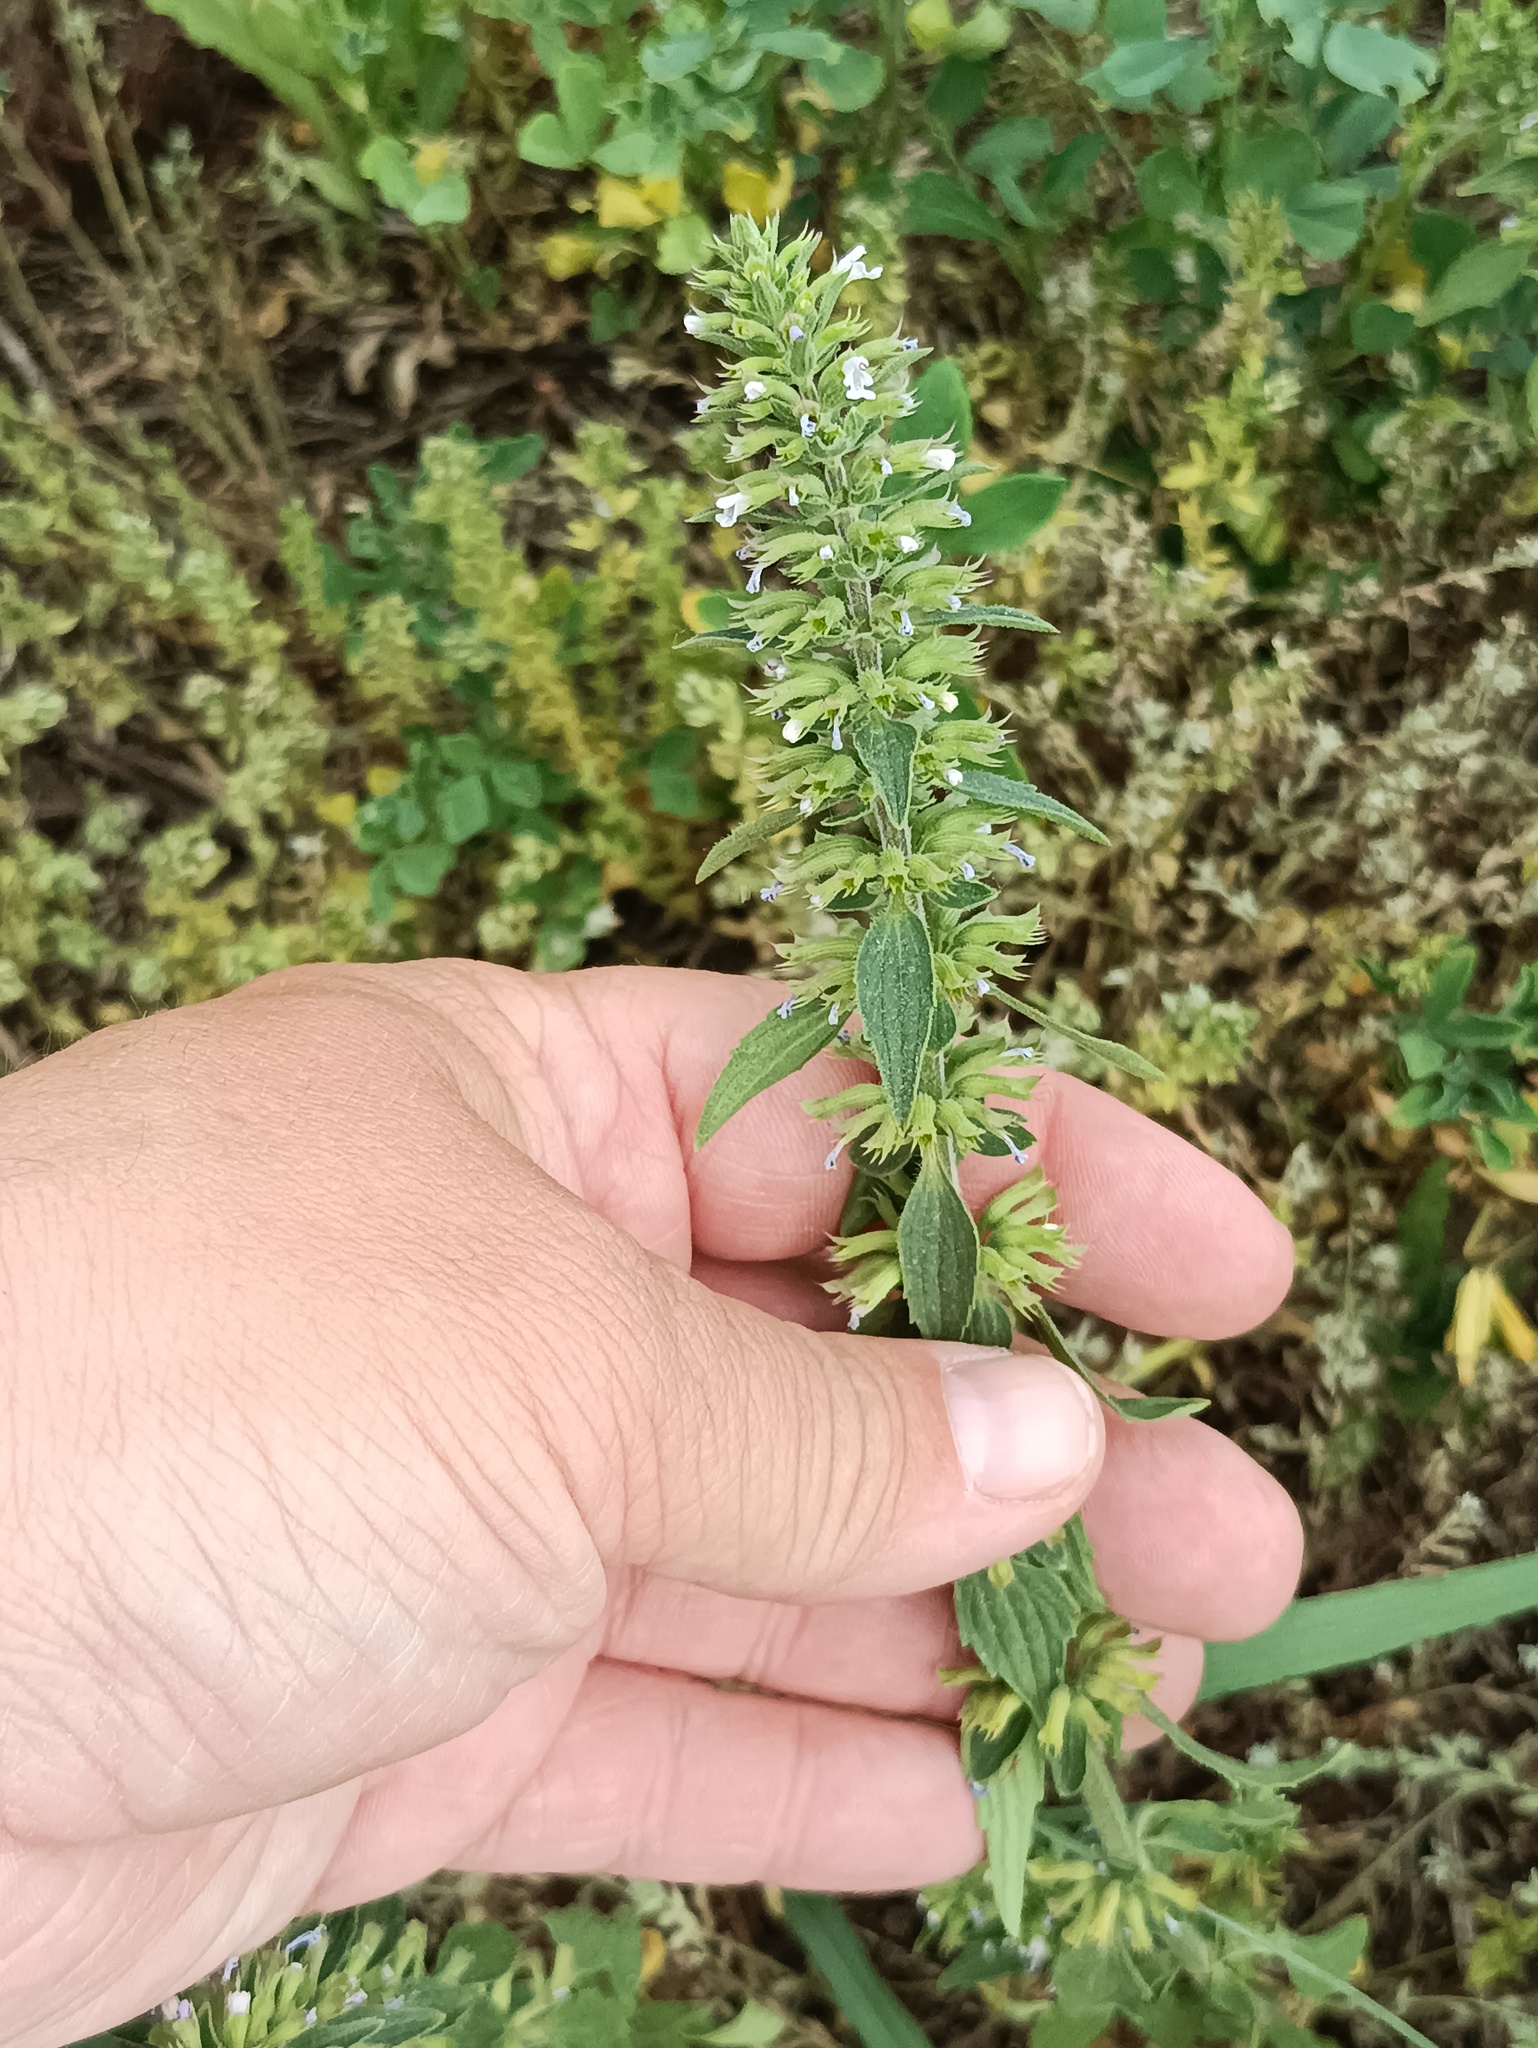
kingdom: Plantae
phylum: Tracheophyta
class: Magnoliopsida
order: Lamiales
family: Lamiaceae
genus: Dracocephalum
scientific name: Dracocephalum thymiflorum
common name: Thymeleaf dragonhead
